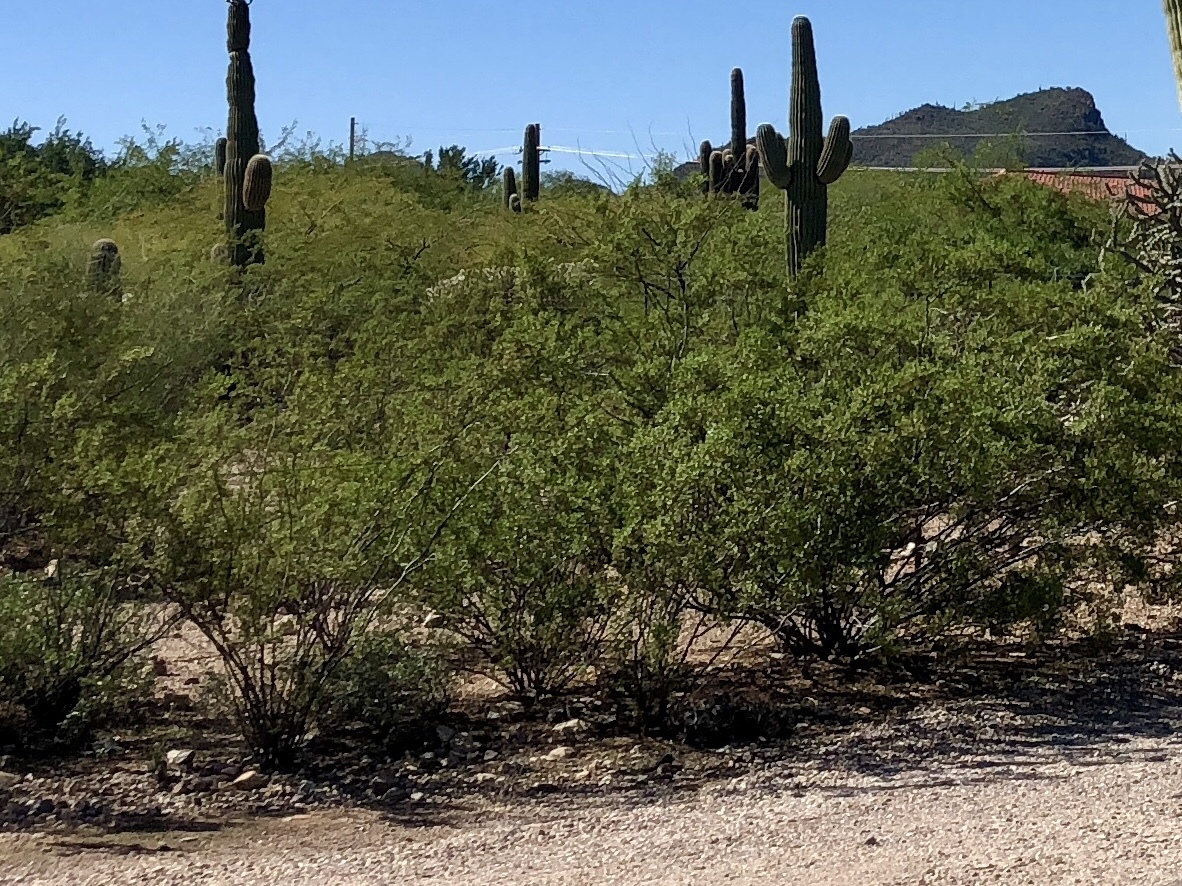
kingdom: Plantae
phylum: Tracheophyta
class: Magnoliopsida
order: Zygophyllales
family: Zygophyllaceae
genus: Larrea
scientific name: Larrea tridentata
